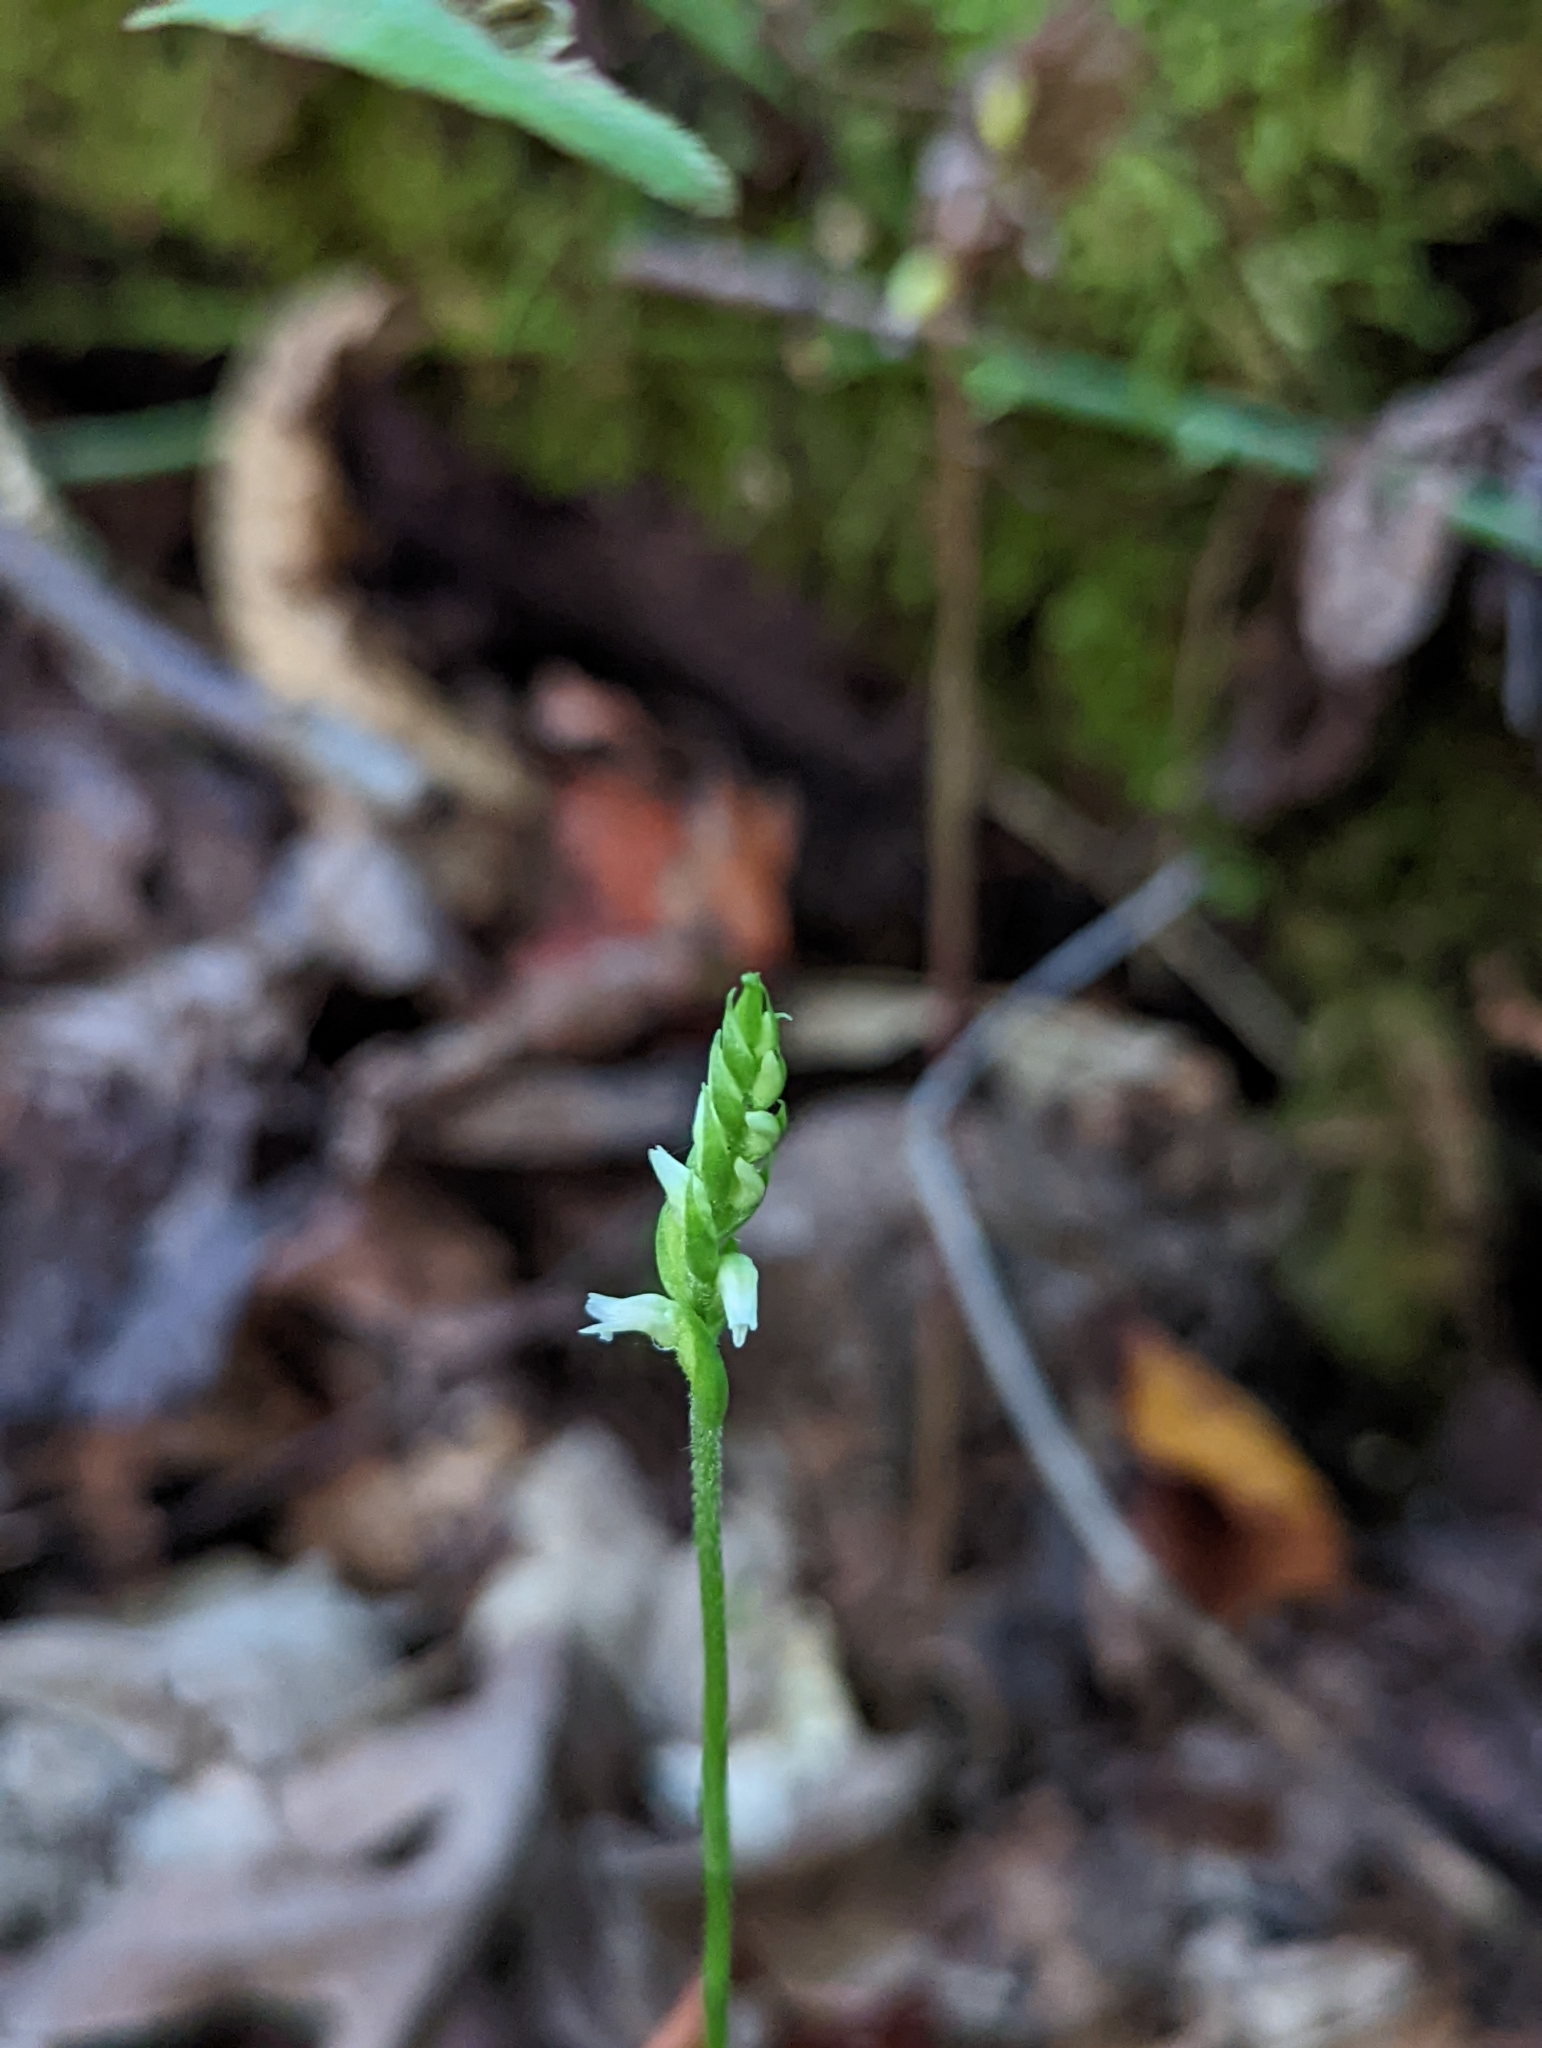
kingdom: Plantae
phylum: Tracheophyta
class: Liliopsida
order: Asparagales
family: Orchidaceae
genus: Spiranthes
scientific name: Spiranthes ovalis
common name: October ladies'-tresses
